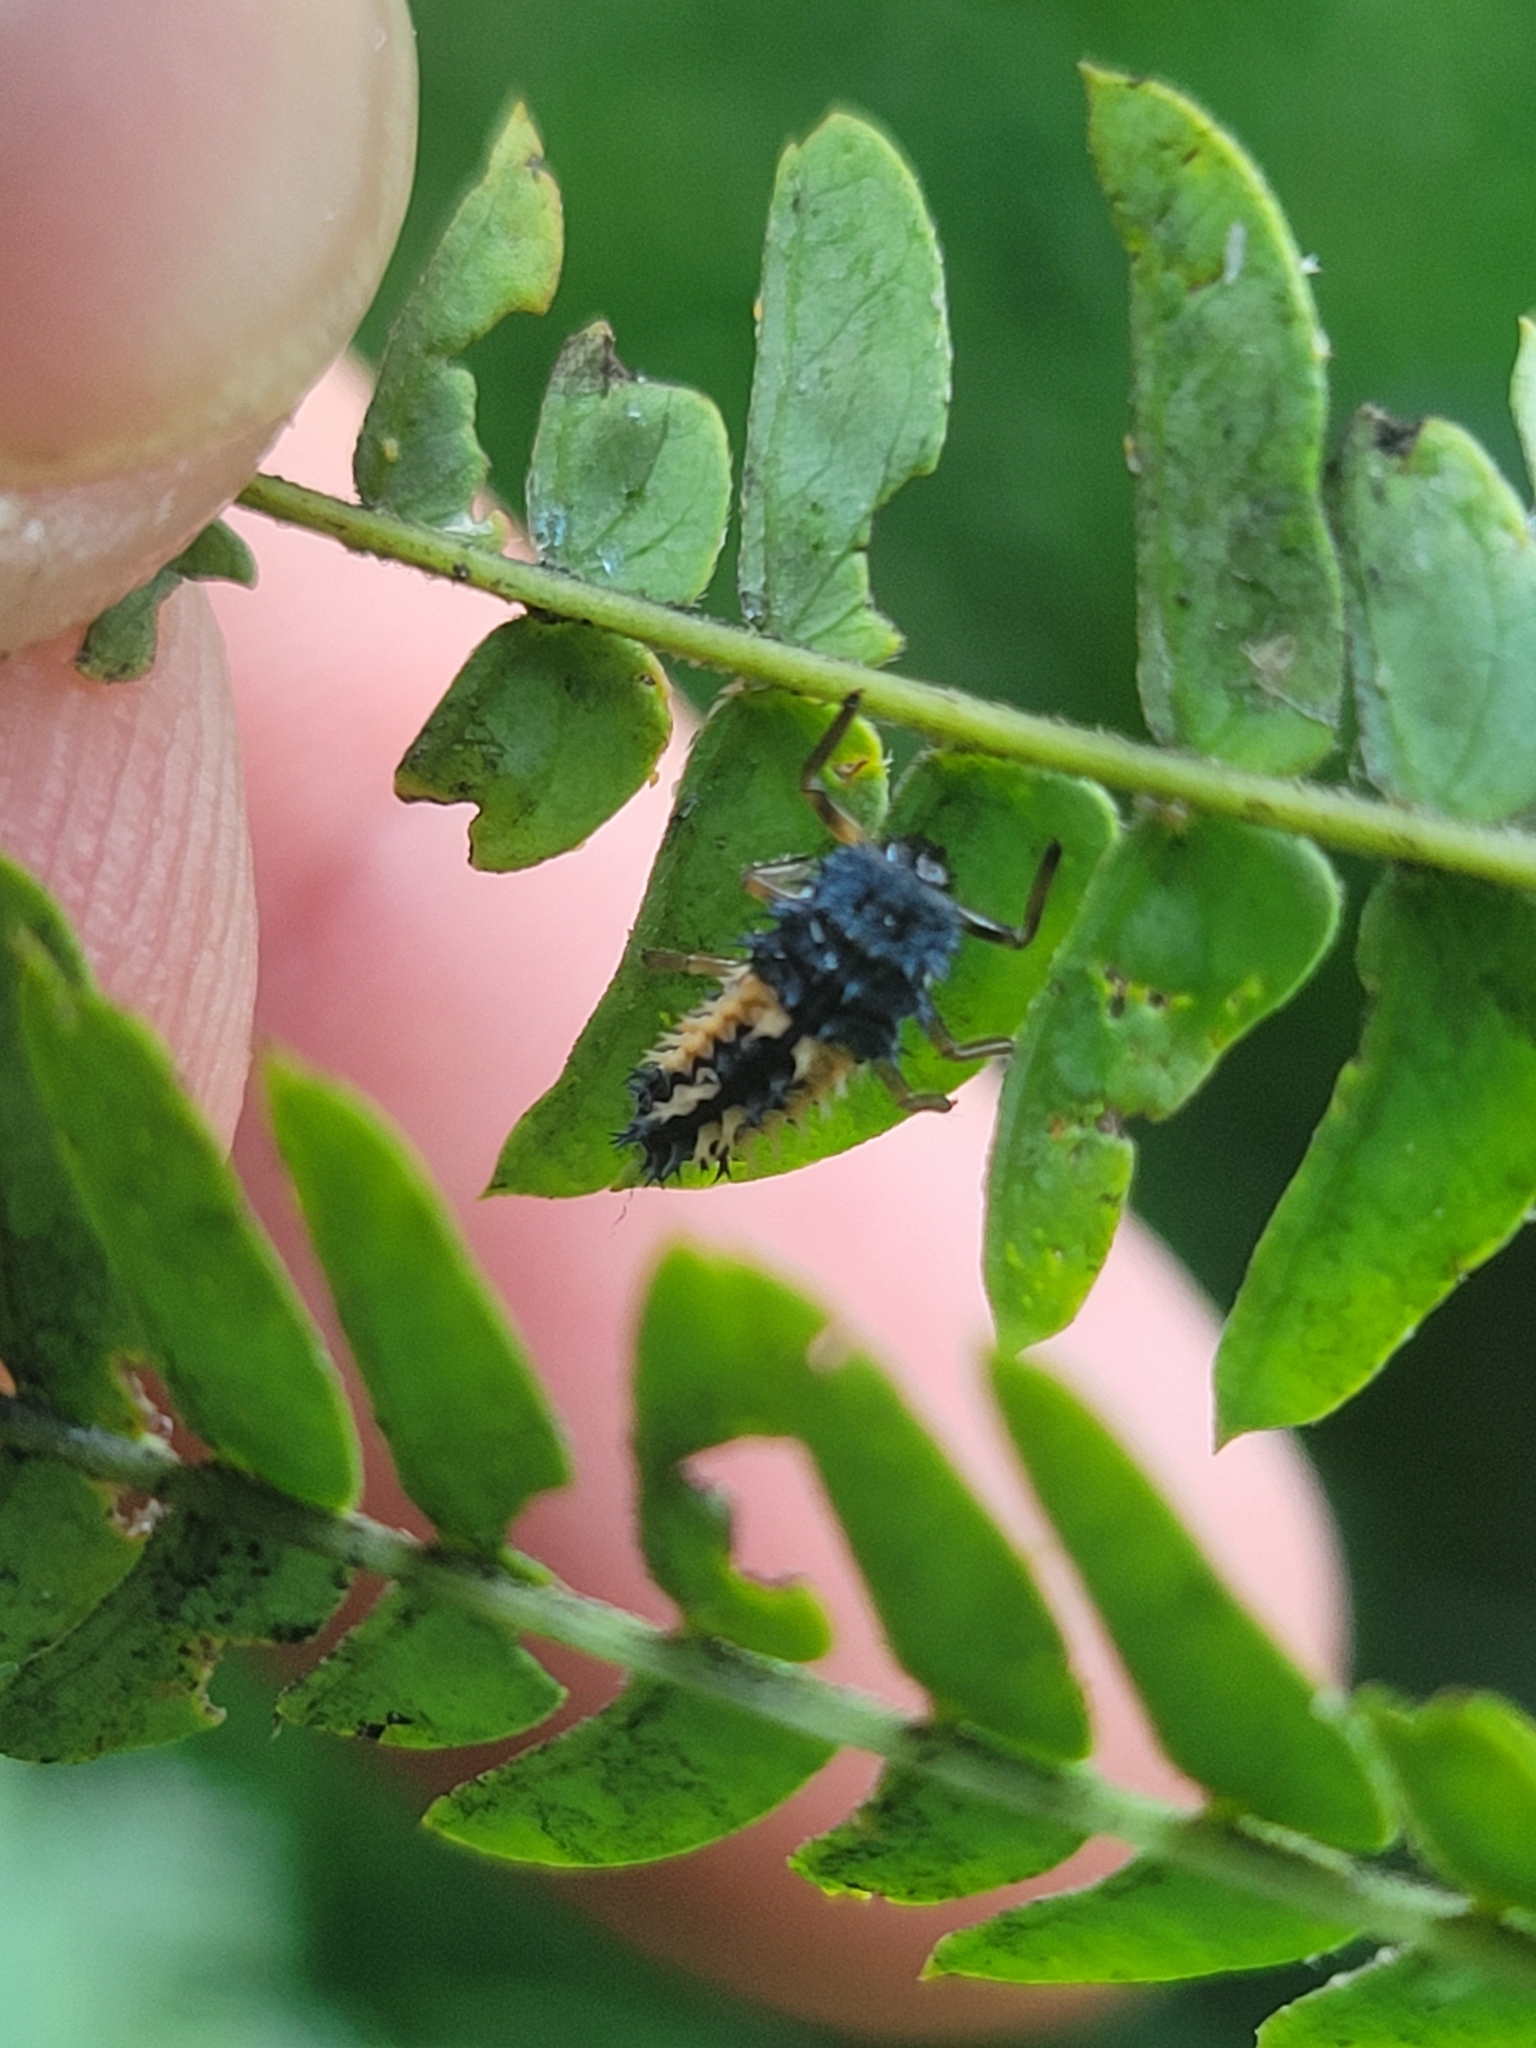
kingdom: Animalia
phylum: Arthropoda
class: Insecta
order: Coleoptera
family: Coccinellidae
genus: Harmonia
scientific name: Harmonia axyridis
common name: Harlequin ladybird
